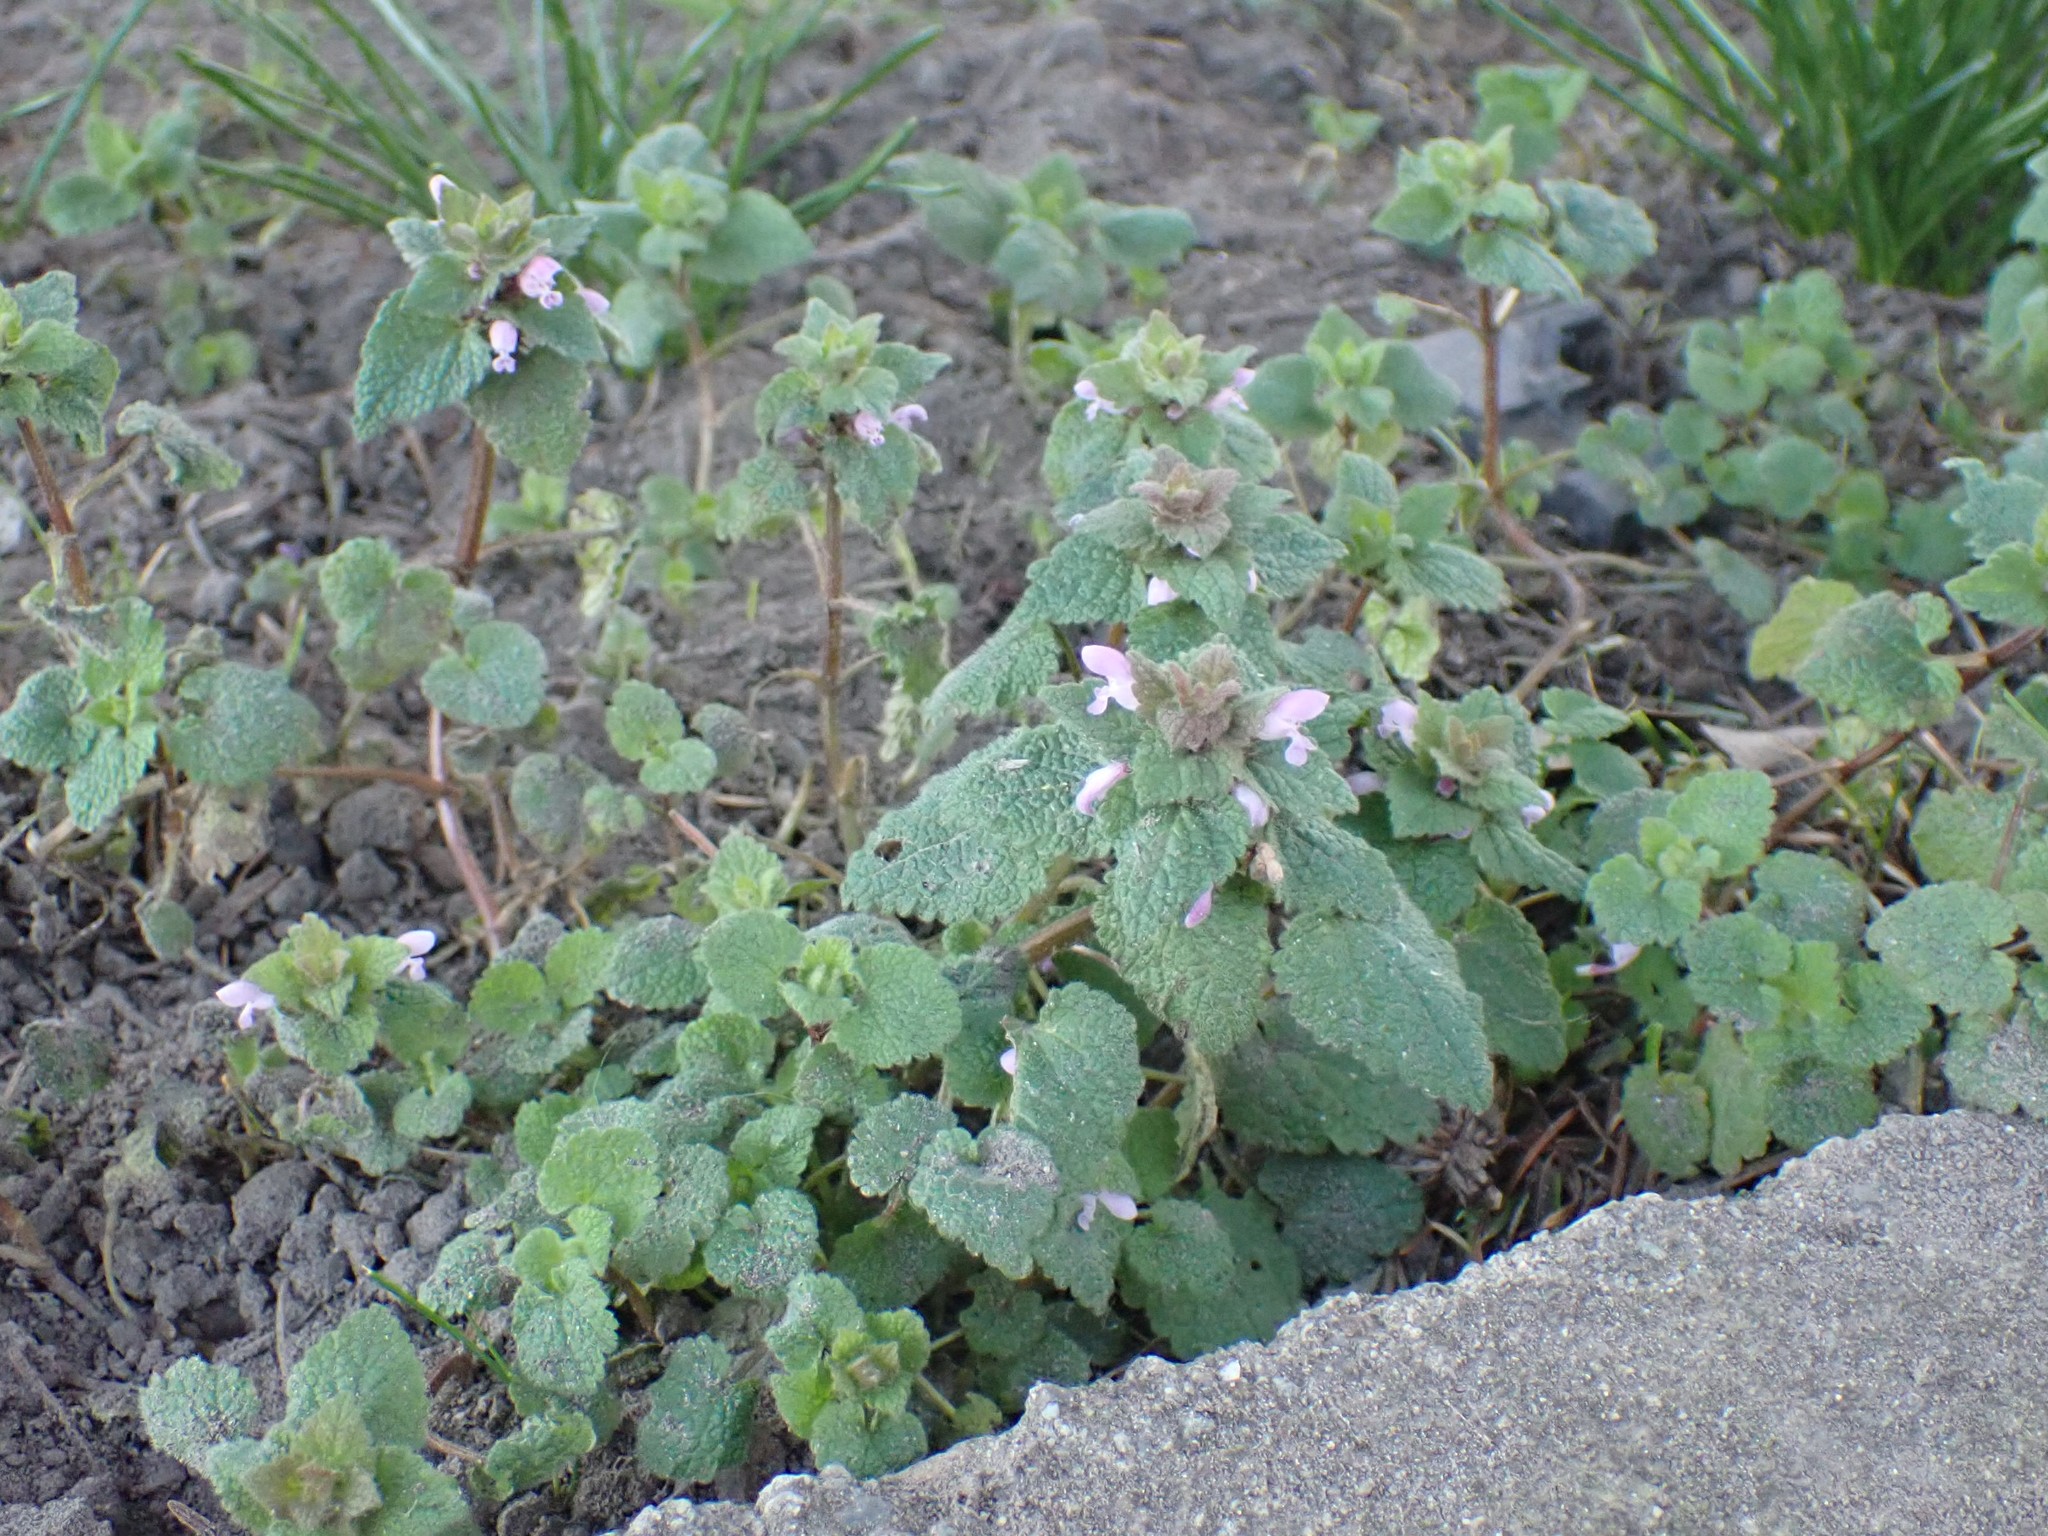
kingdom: Plantae
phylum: Tracheophyta
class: Magnoliopsida
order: Lamiales
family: Lamiaceae
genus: Lamium
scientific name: Lamium purpureum
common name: Red dead-nettle
